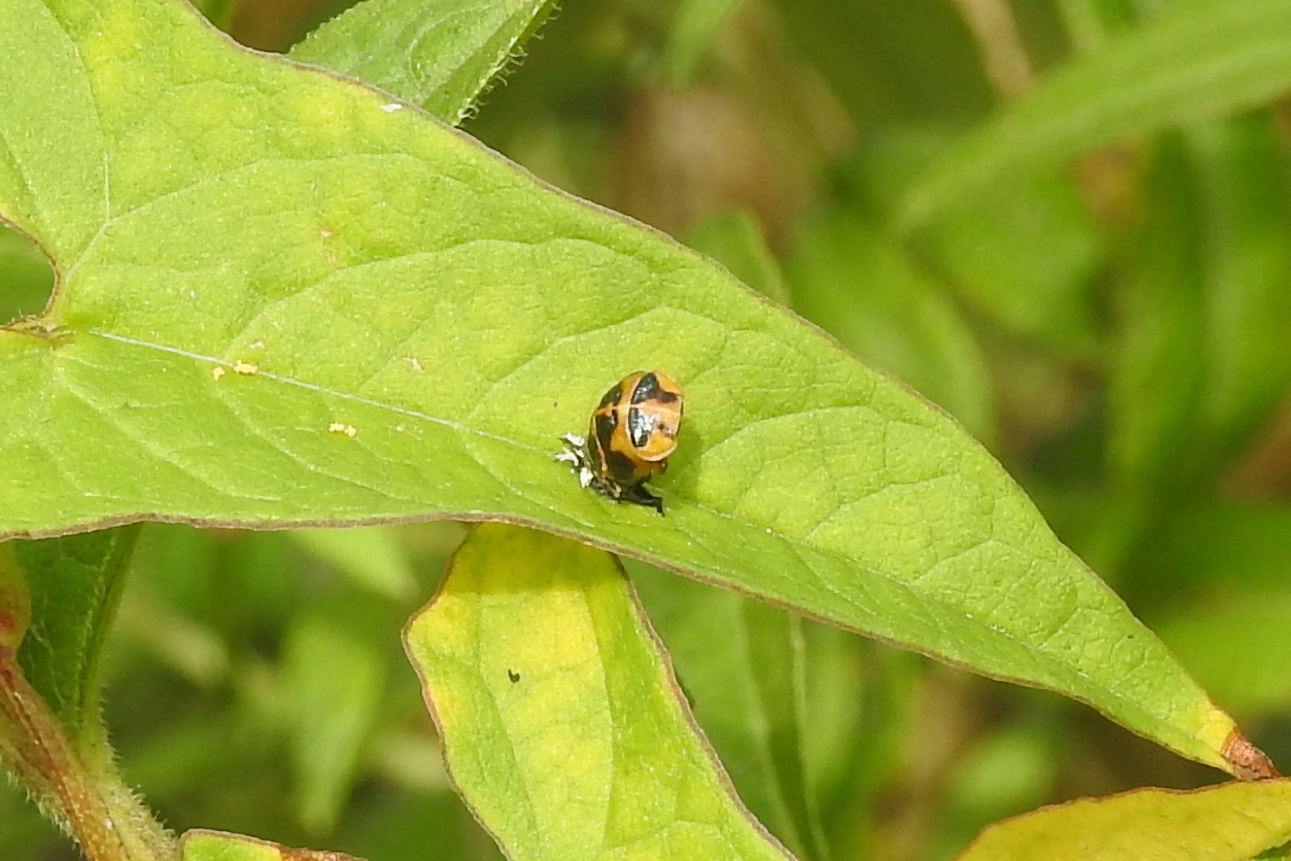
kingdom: Animalia
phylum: Arthropoda
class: Insecta
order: Coleoptera
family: Coccinellidae
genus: Harmonia
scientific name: Harmonia axyridis
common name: Harlequin ladybird
